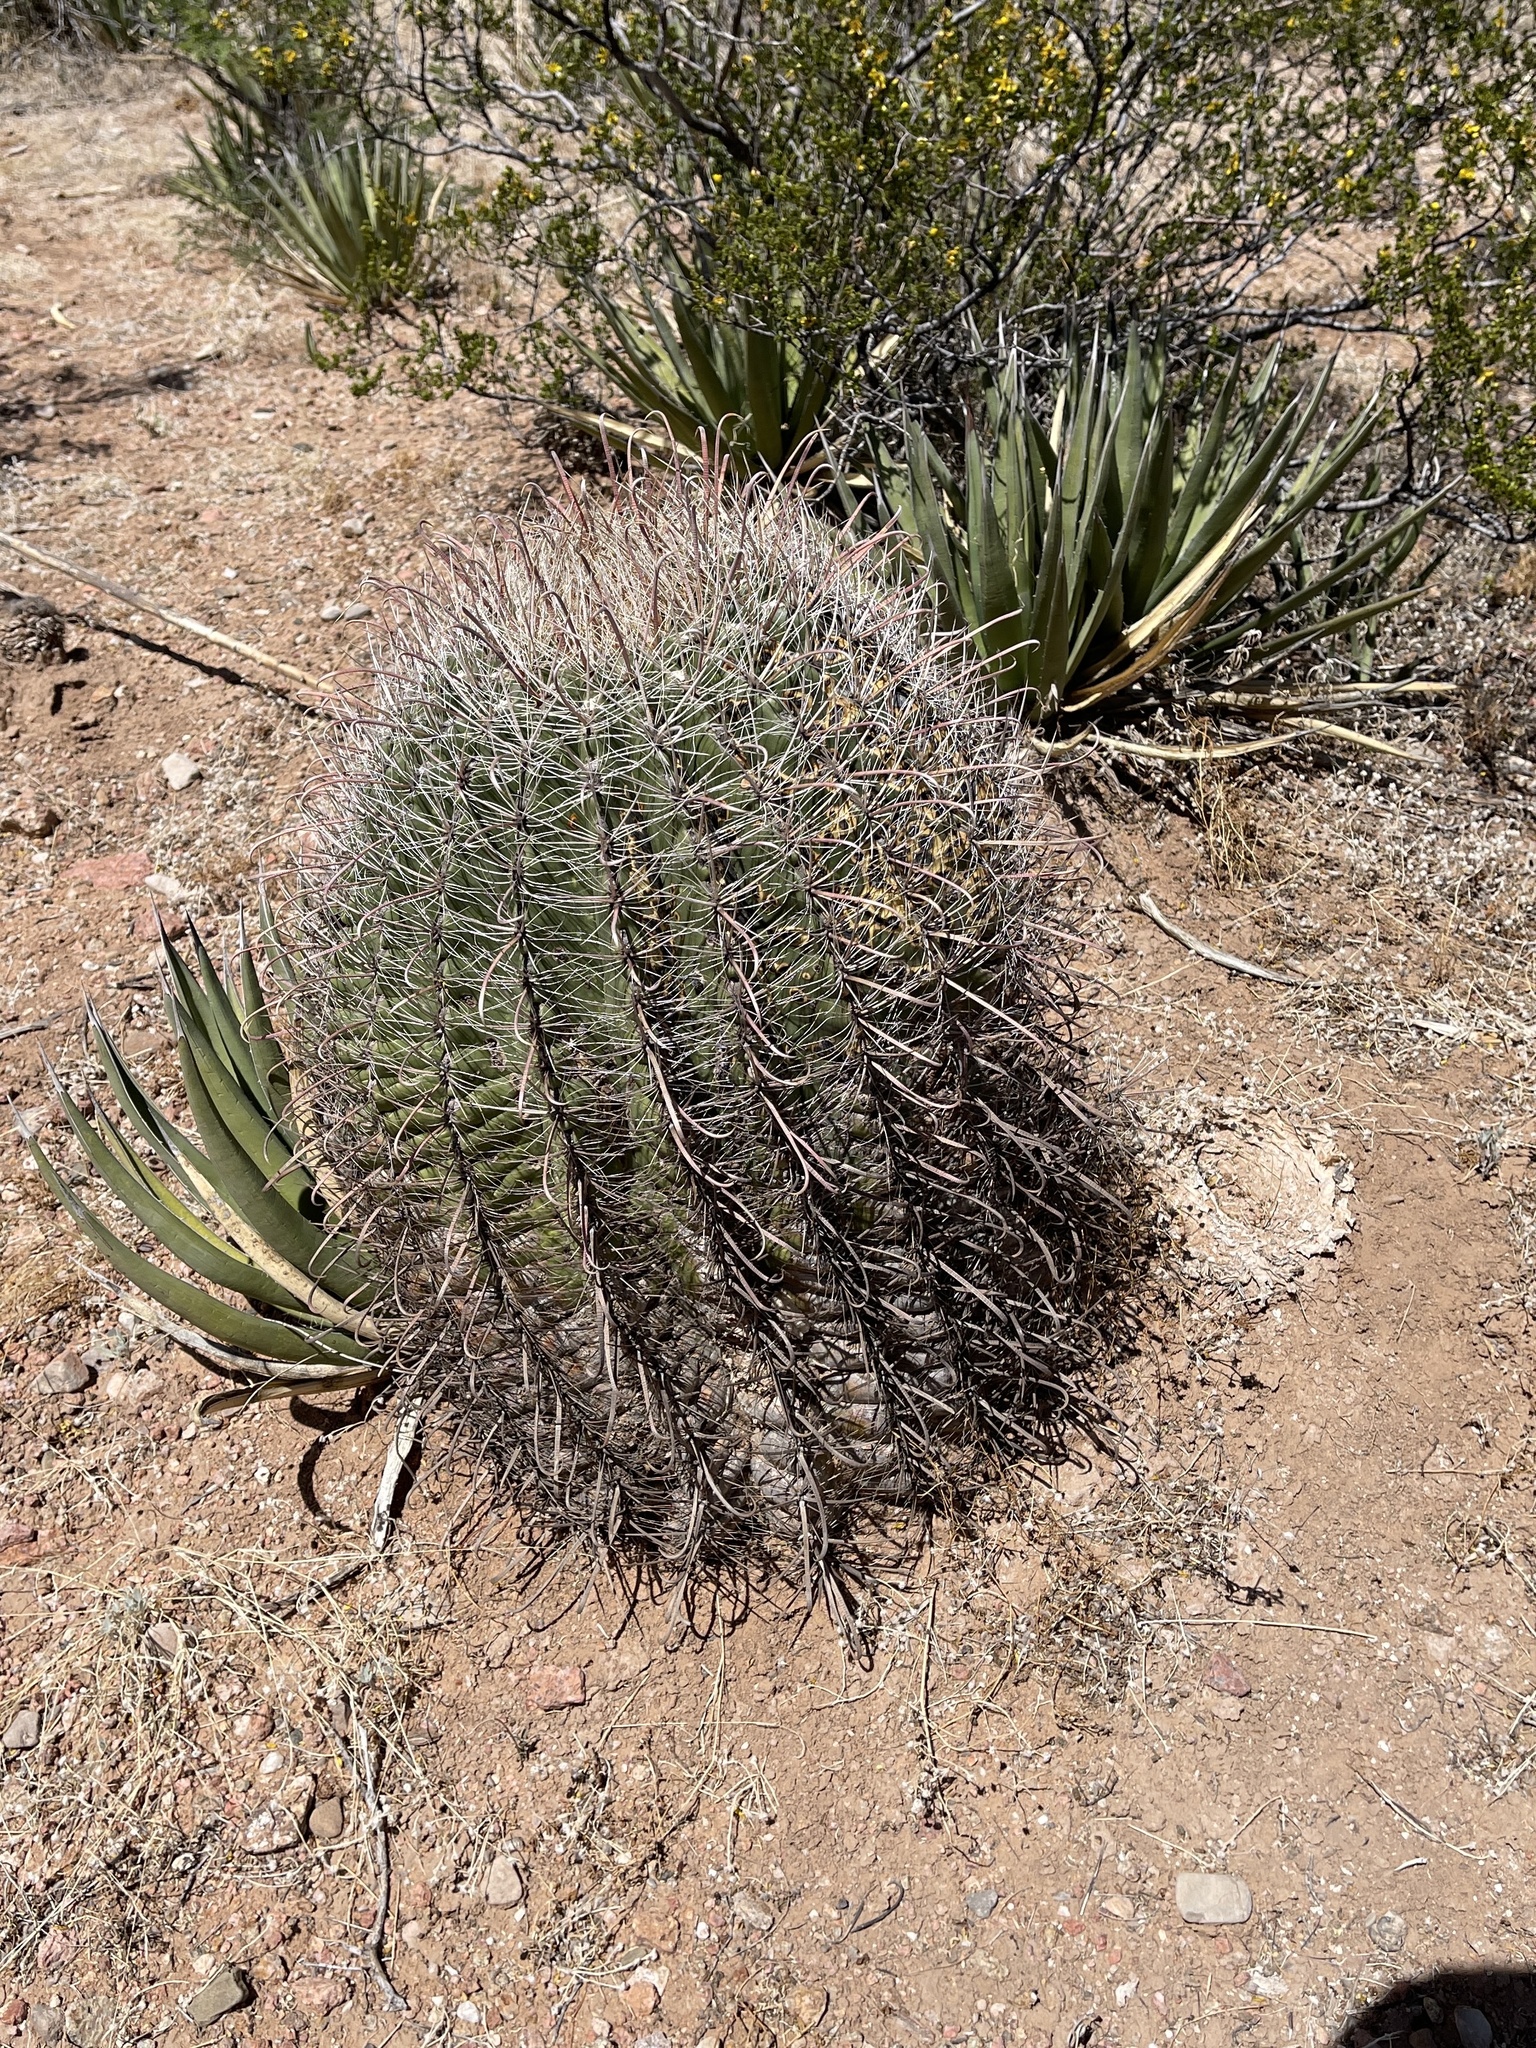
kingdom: Plantae
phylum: Tracheophyta
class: Magnoliopsida
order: Caryophyllales
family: Cactaceae
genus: Ferocactus
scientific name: Ferocactus wislizeni
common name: Candy barrel cactus
